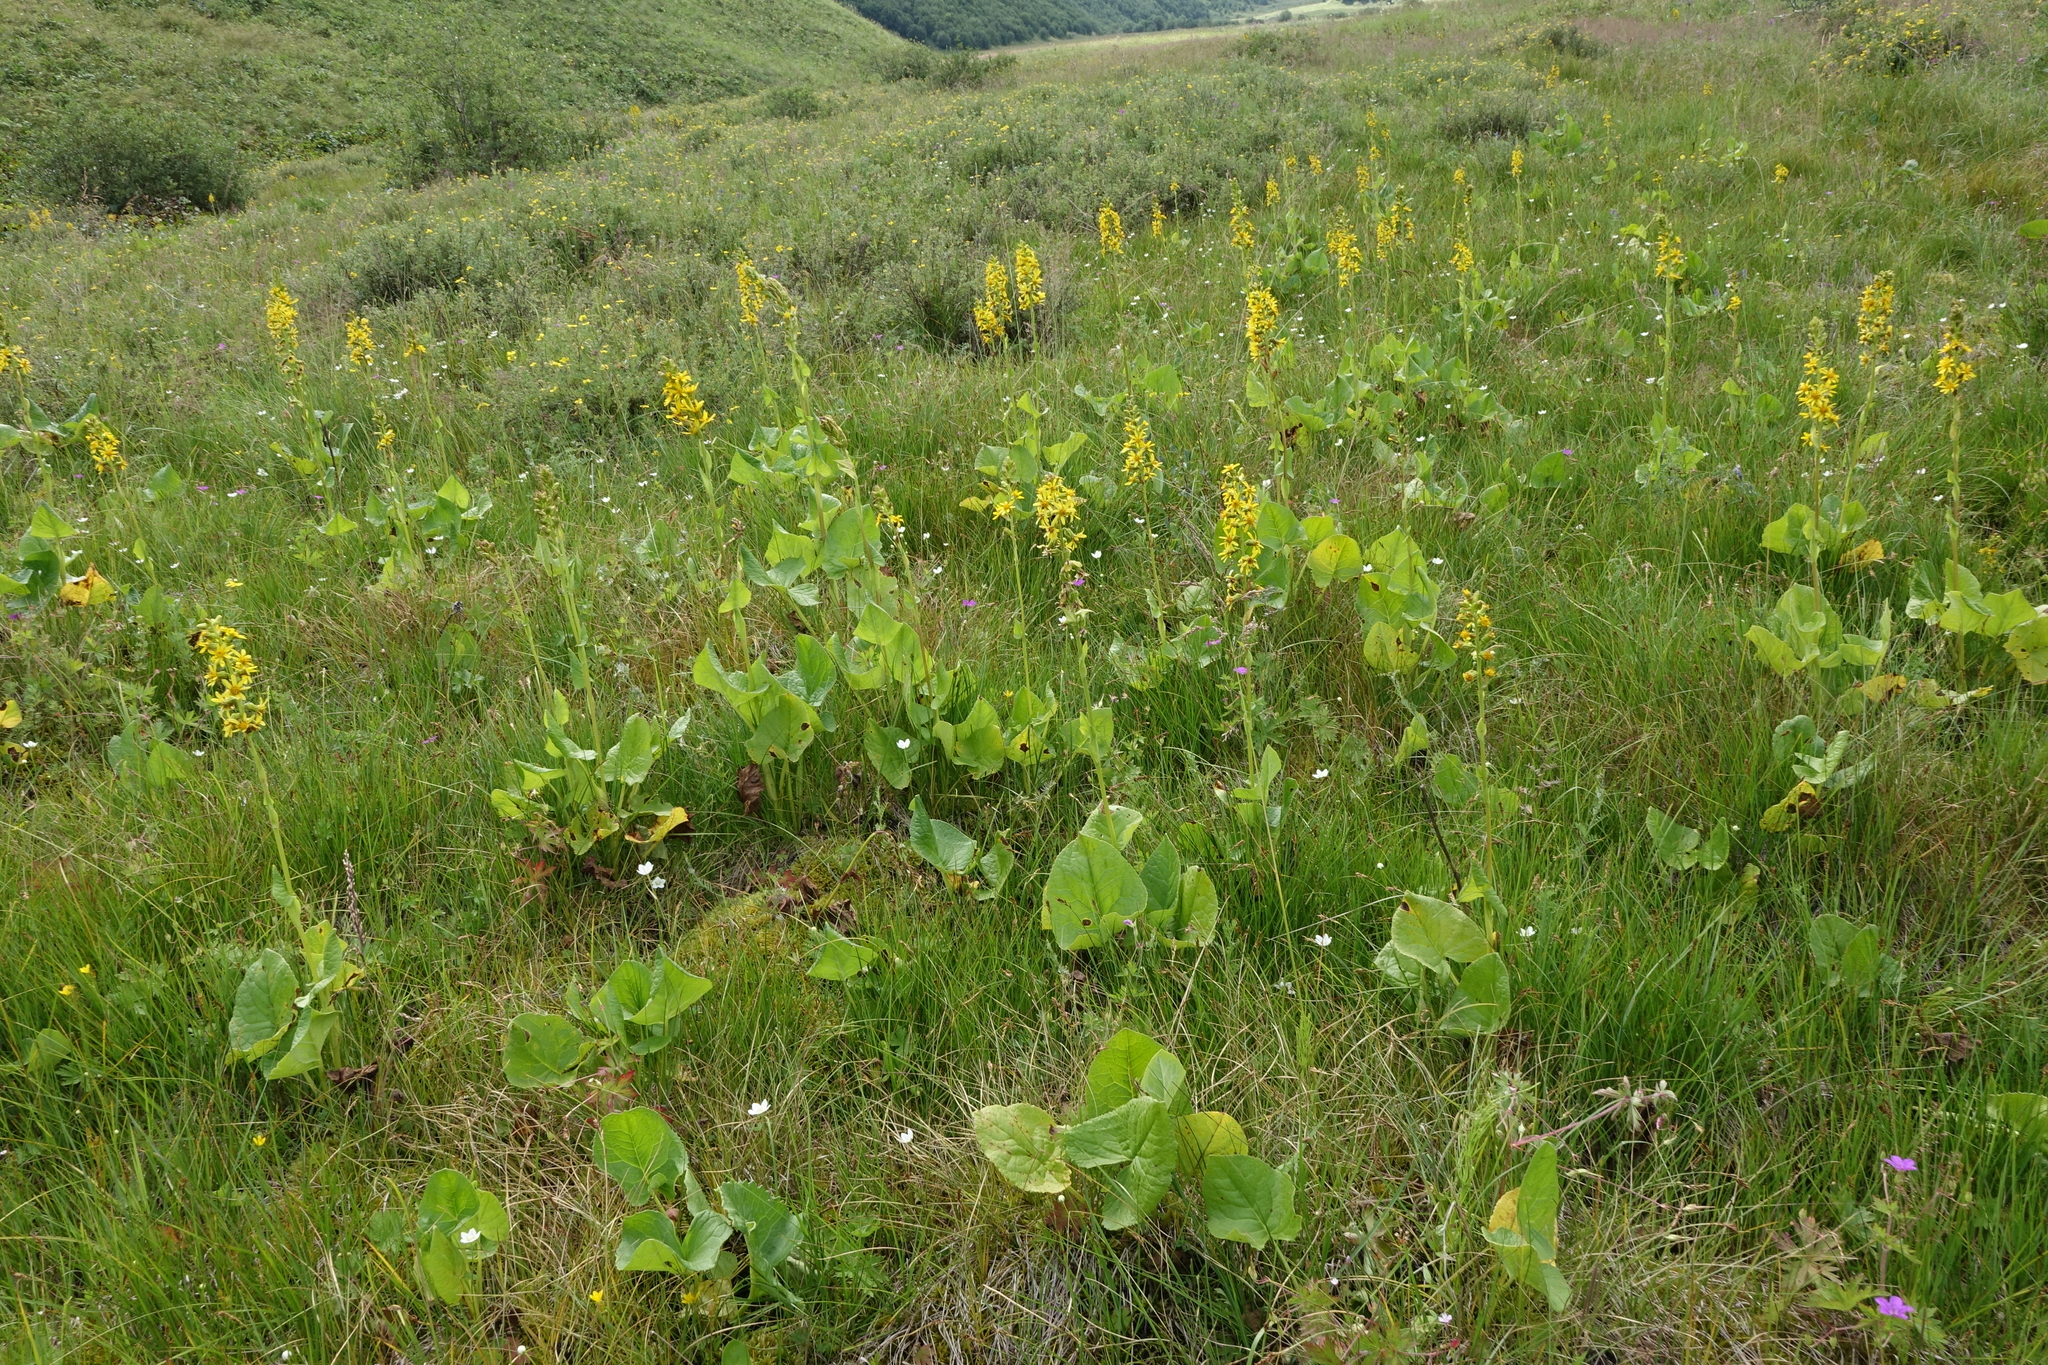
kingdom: Plantae
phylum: Tracheophyta
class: Magnoliopsida
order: Asterales
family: Asteraceae
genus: Ligularia
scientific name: Ligularia subsagittata
